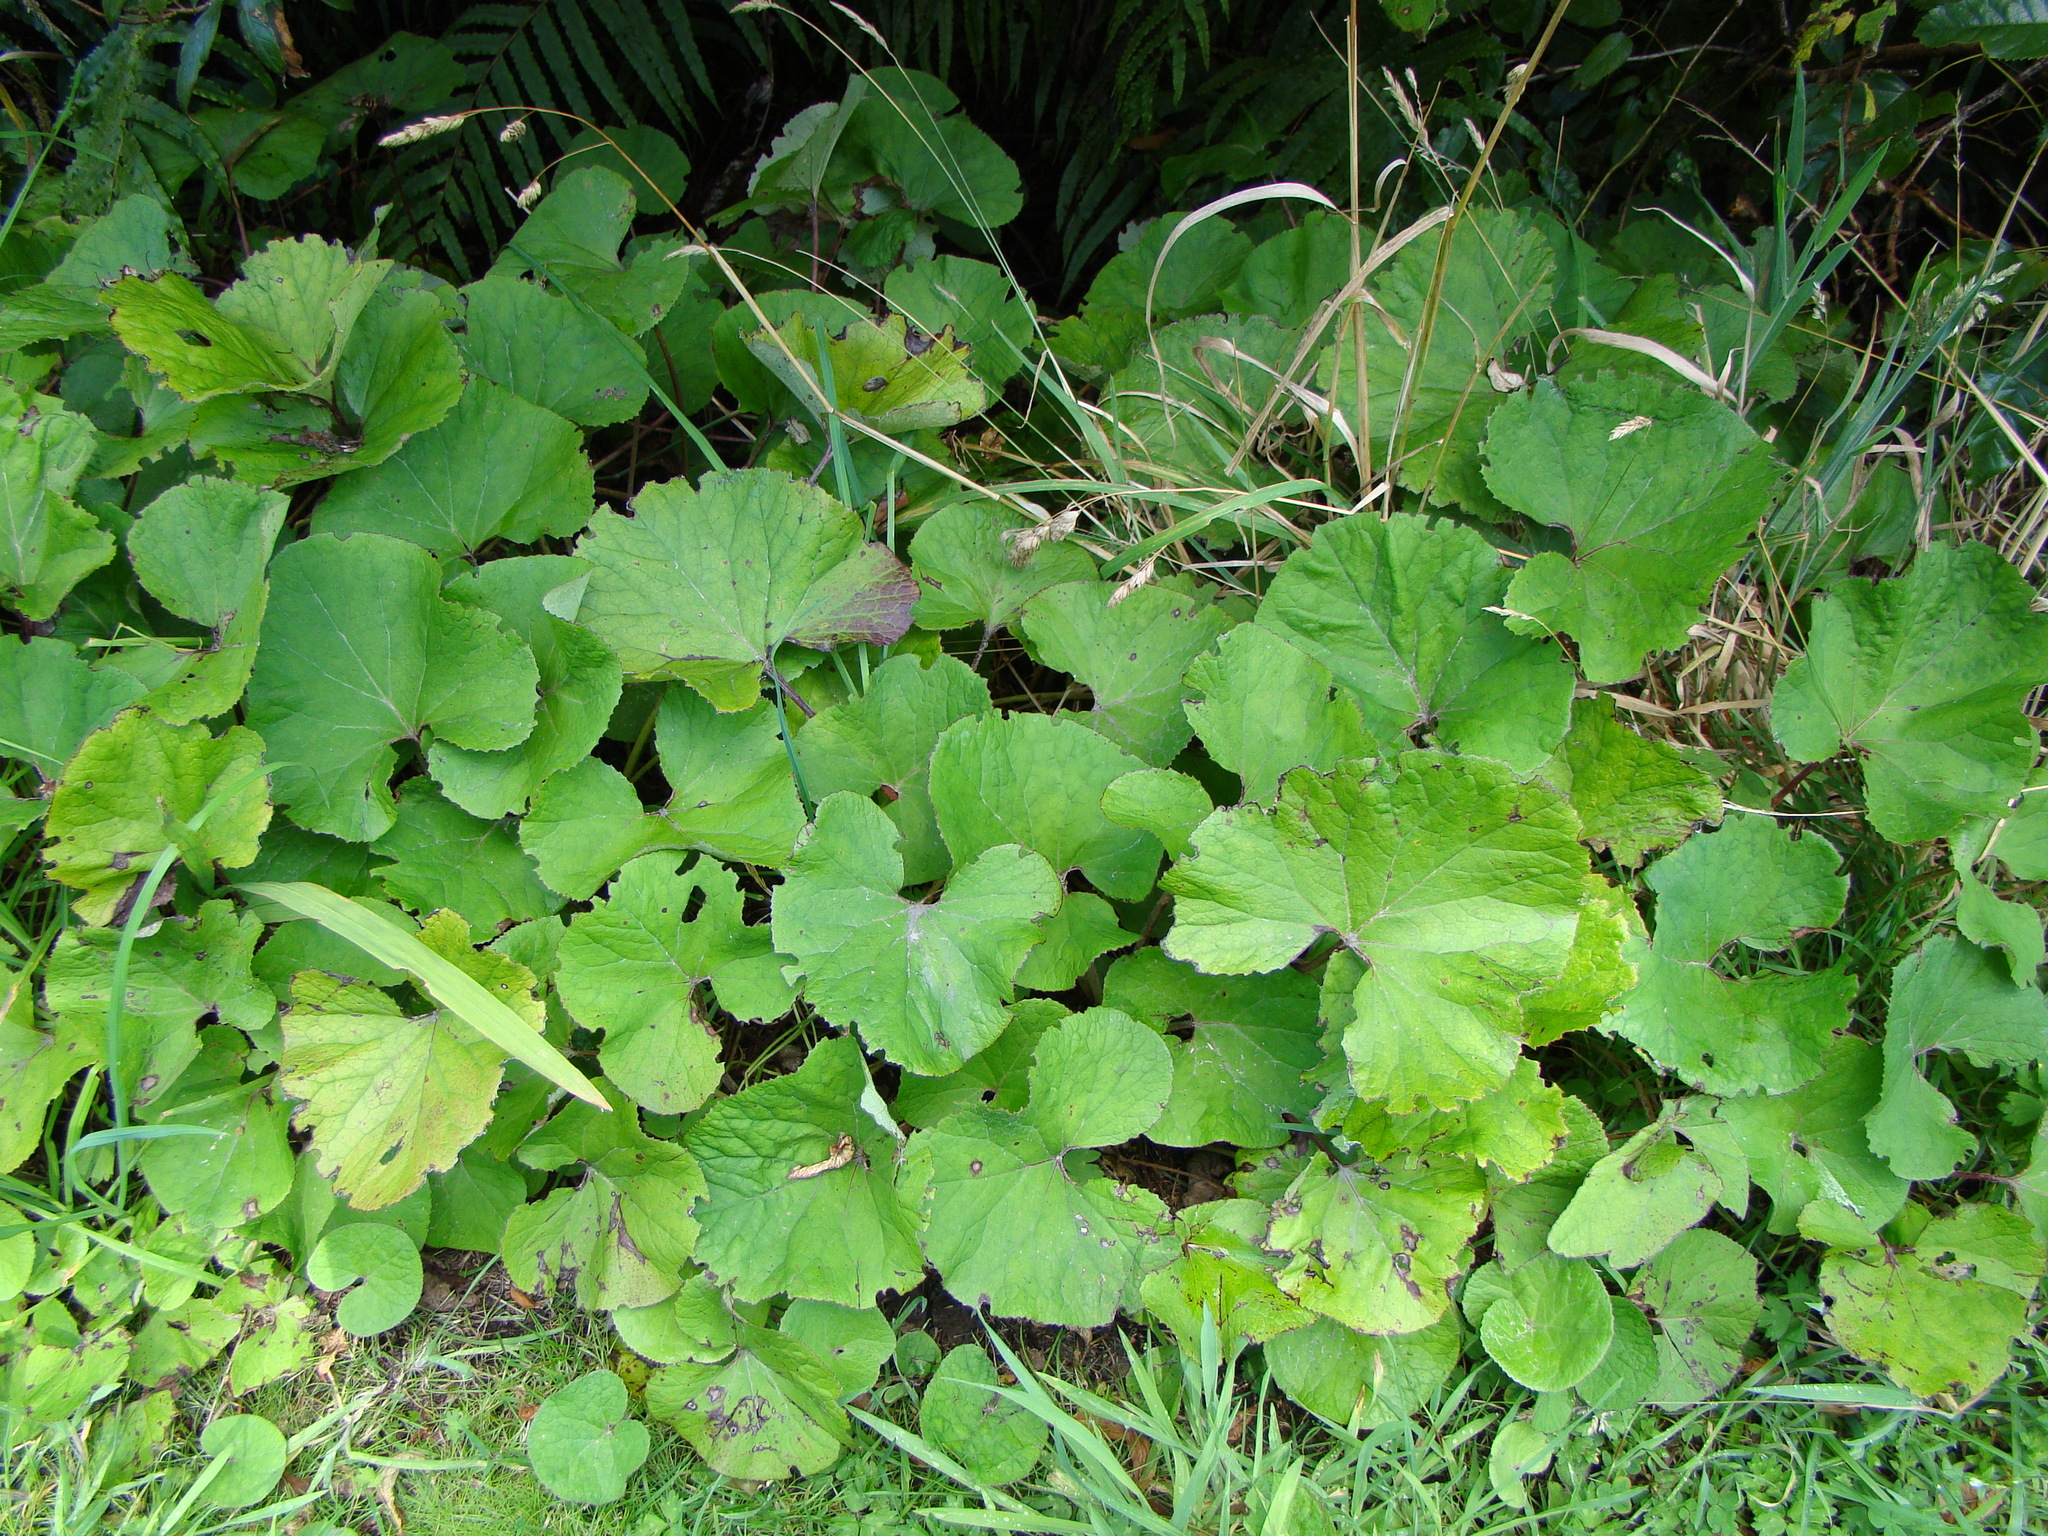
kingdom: Plantae
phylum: Tracheophyta
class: Magnoliopsida
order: Asterales
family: Asteraceae
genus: Petasites
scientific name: Petasites pyrenaicus
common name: Winter heliotrope
